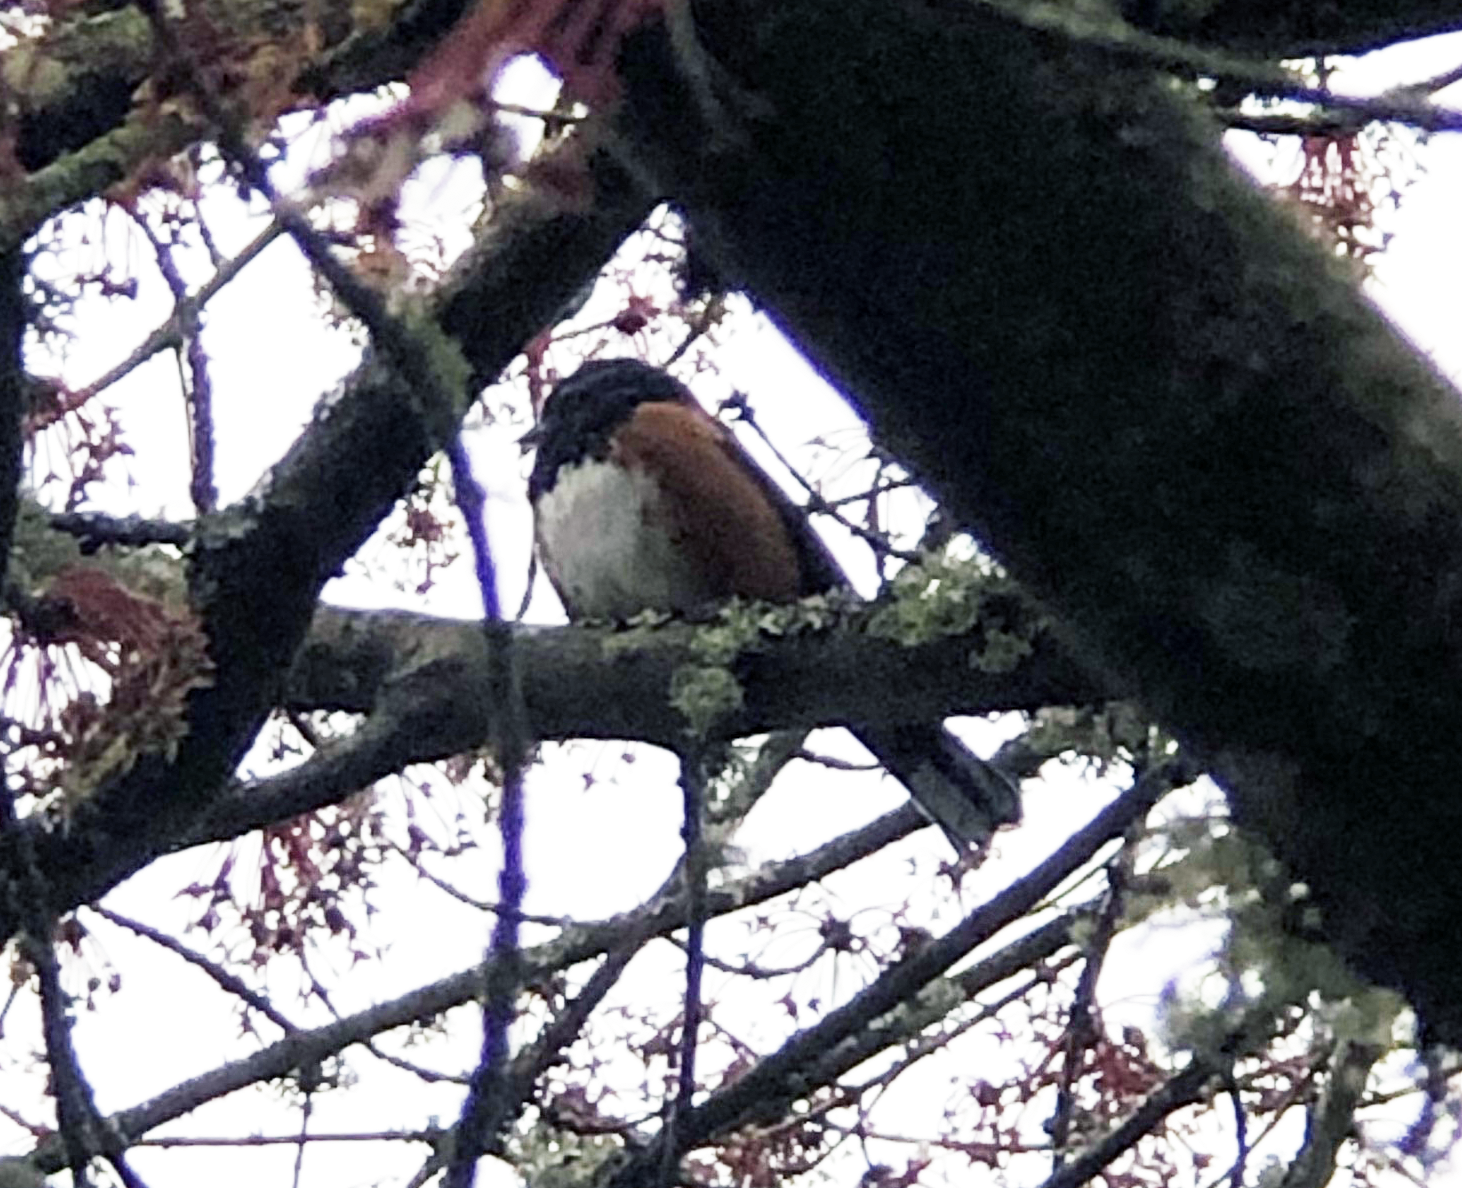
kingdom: Animalia
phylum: Chordata
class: Aves
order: Passeriformes
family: Passerellidae
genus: Pipilo
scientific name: Pipilo maculatus
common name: Spotted towhee
